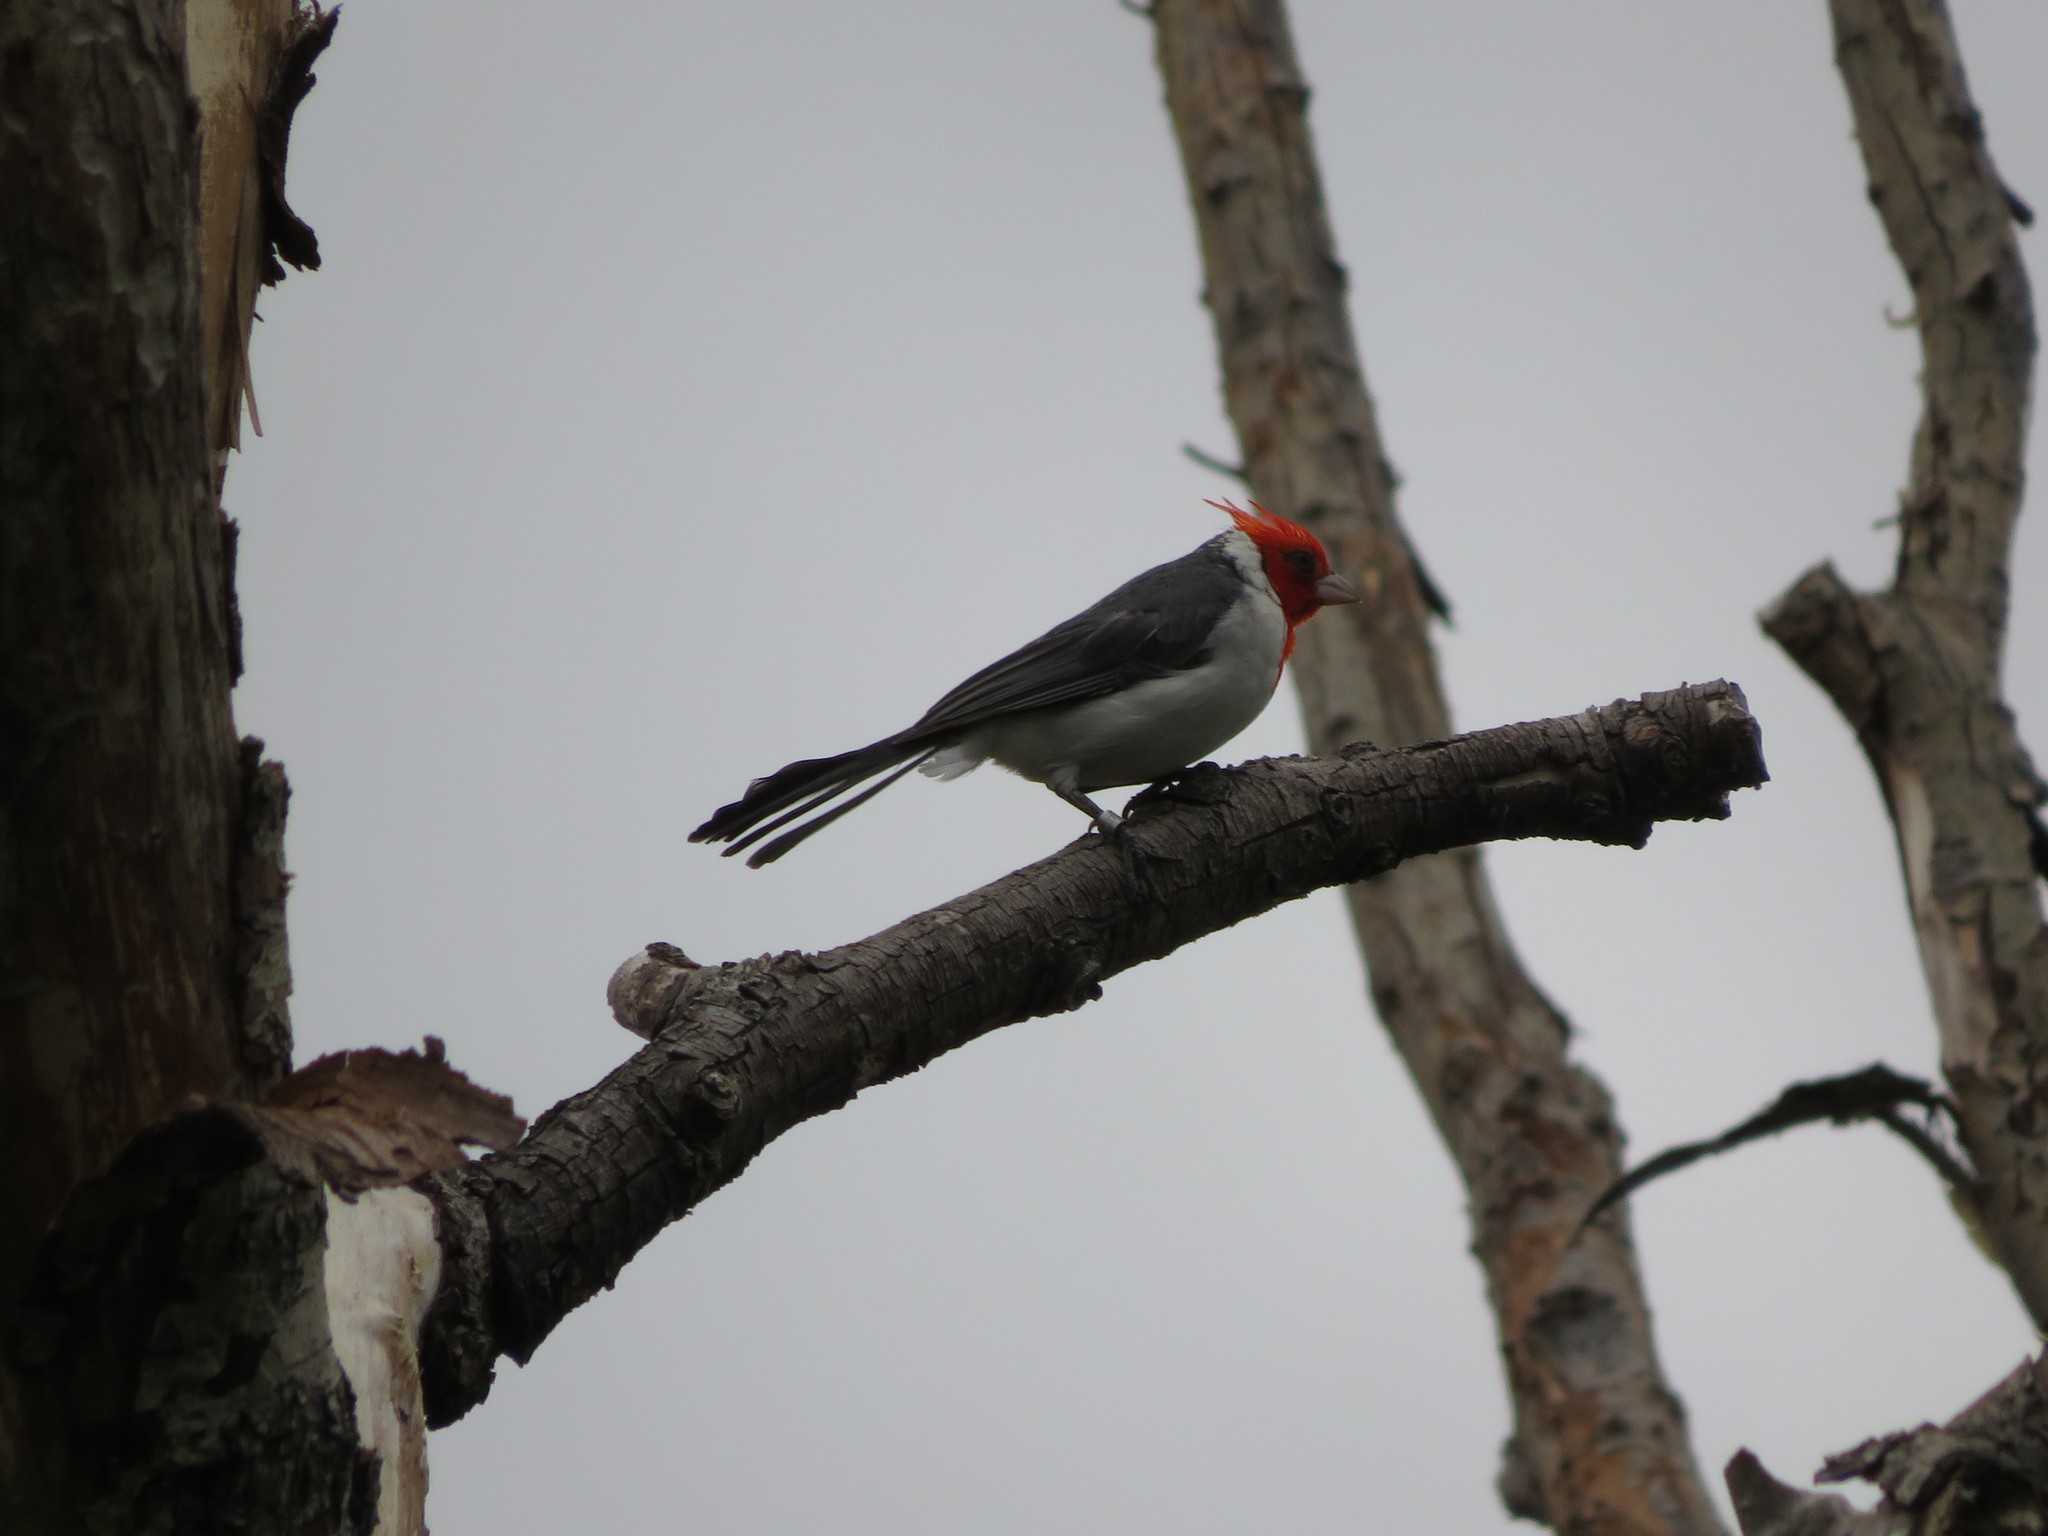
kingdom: Animalia
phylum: Chordata
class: Aves
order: Passeriformes
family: Thraupidae
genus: Paroaria
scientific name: Paroaria coronata
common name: Red-crested cardinal
